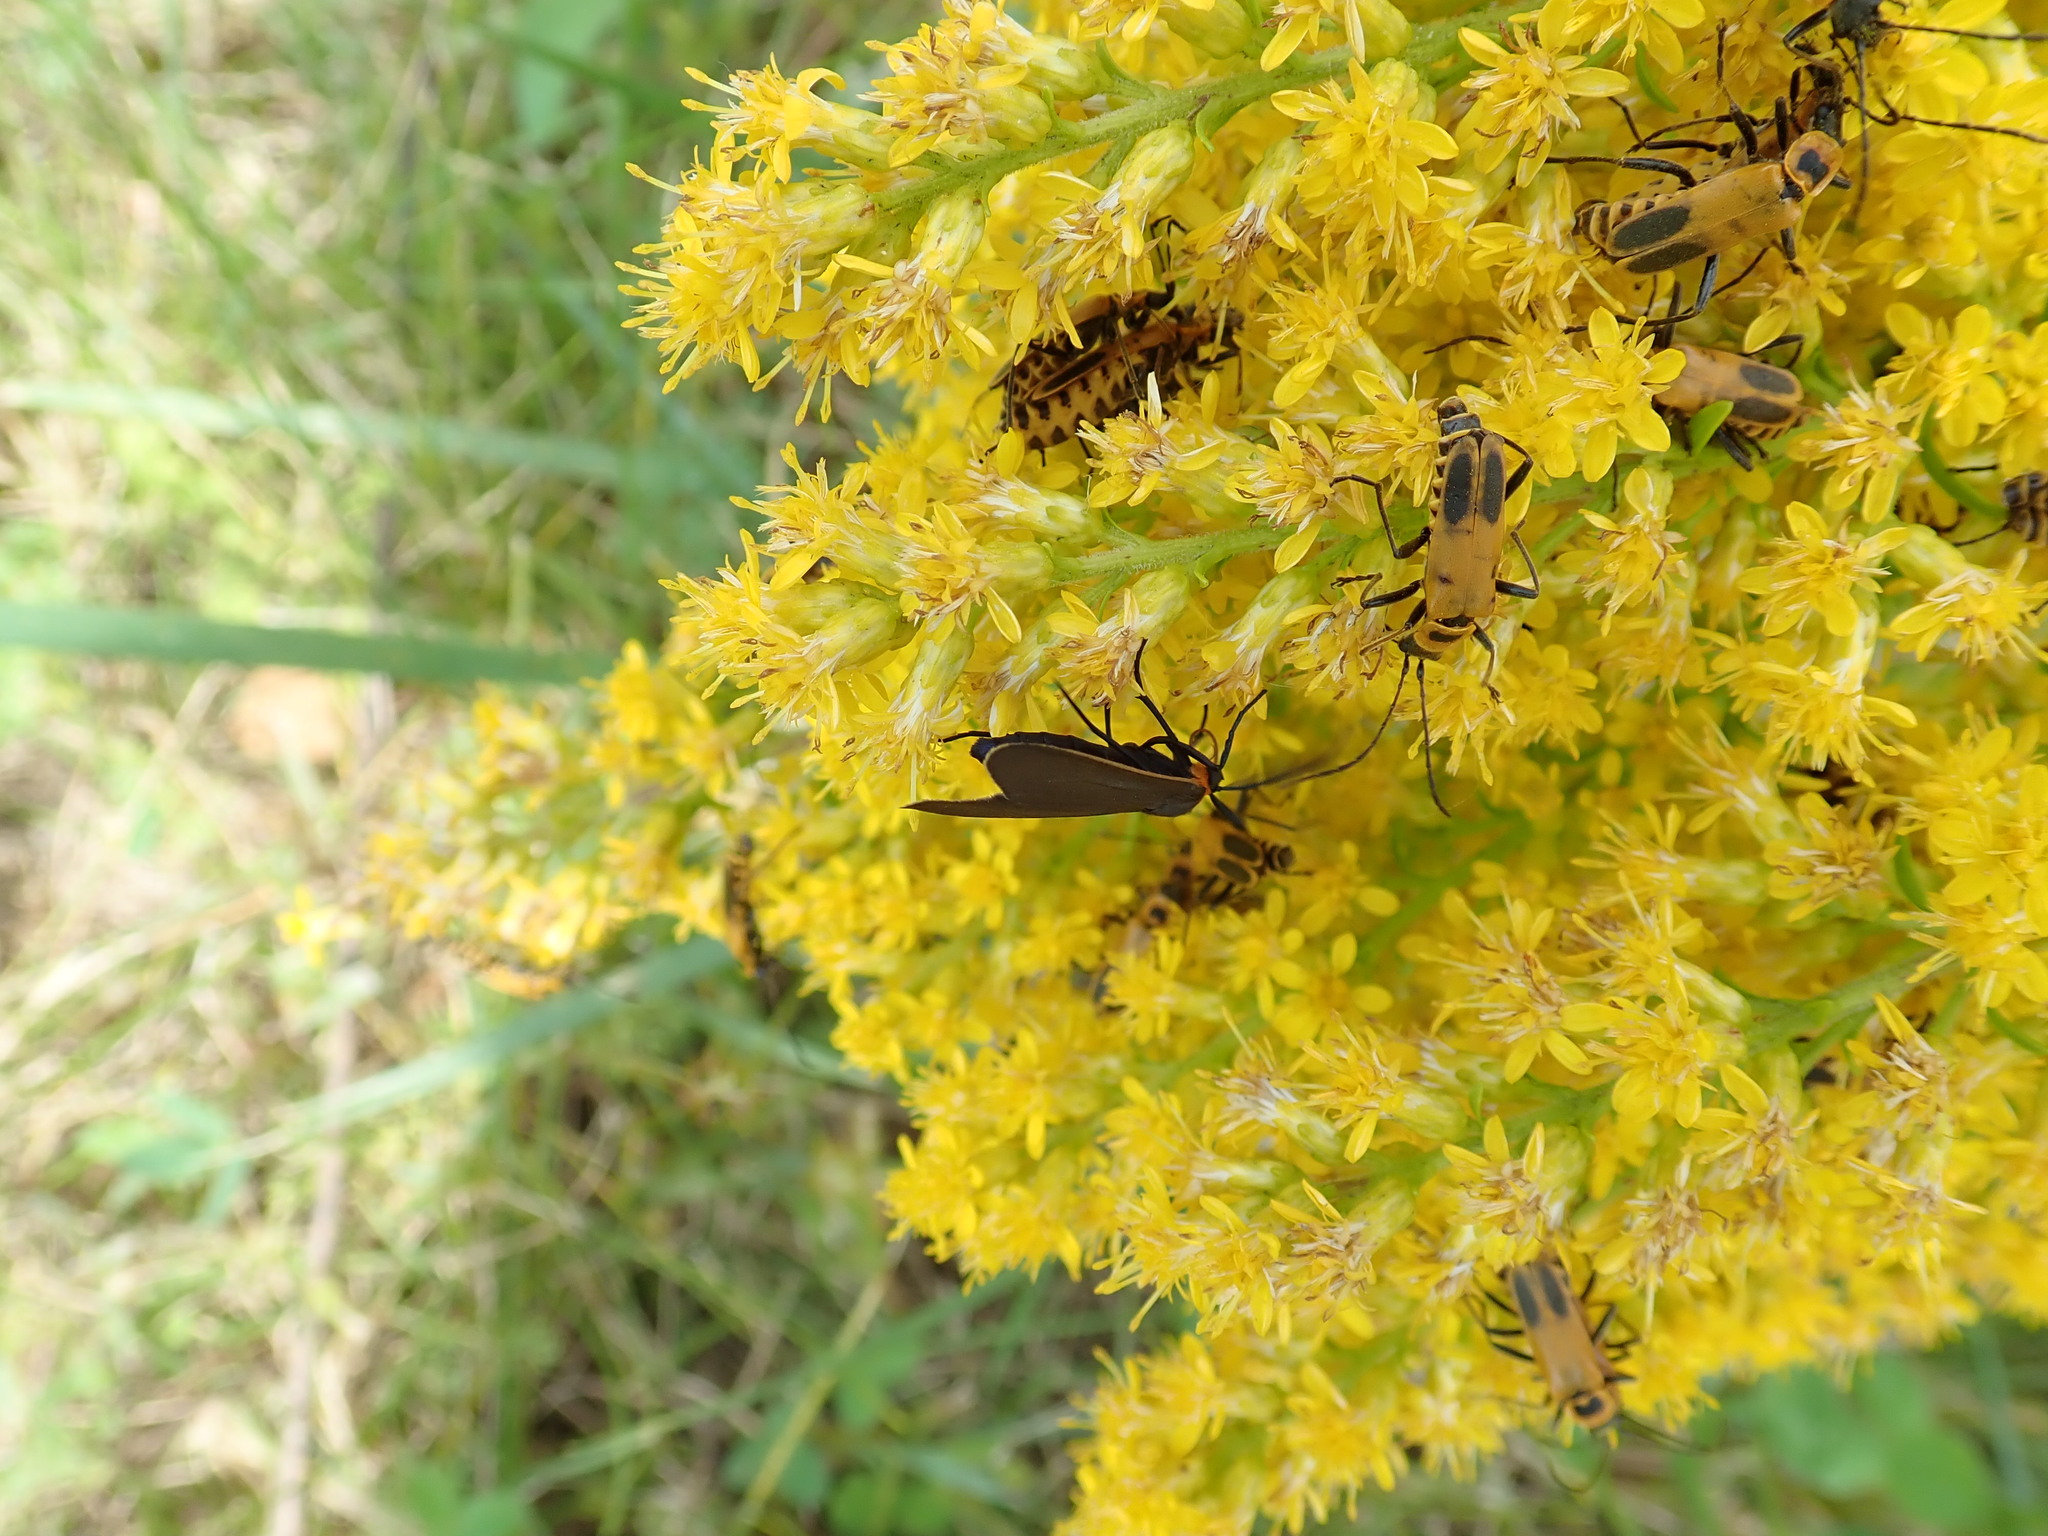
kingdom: Animalia
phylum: Arthropoda
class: Insecta
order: Lepidoptera
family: Erebidae
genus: Cisseps
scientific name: Cisseps fulvicollis
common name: Yellow-collared scape moth
